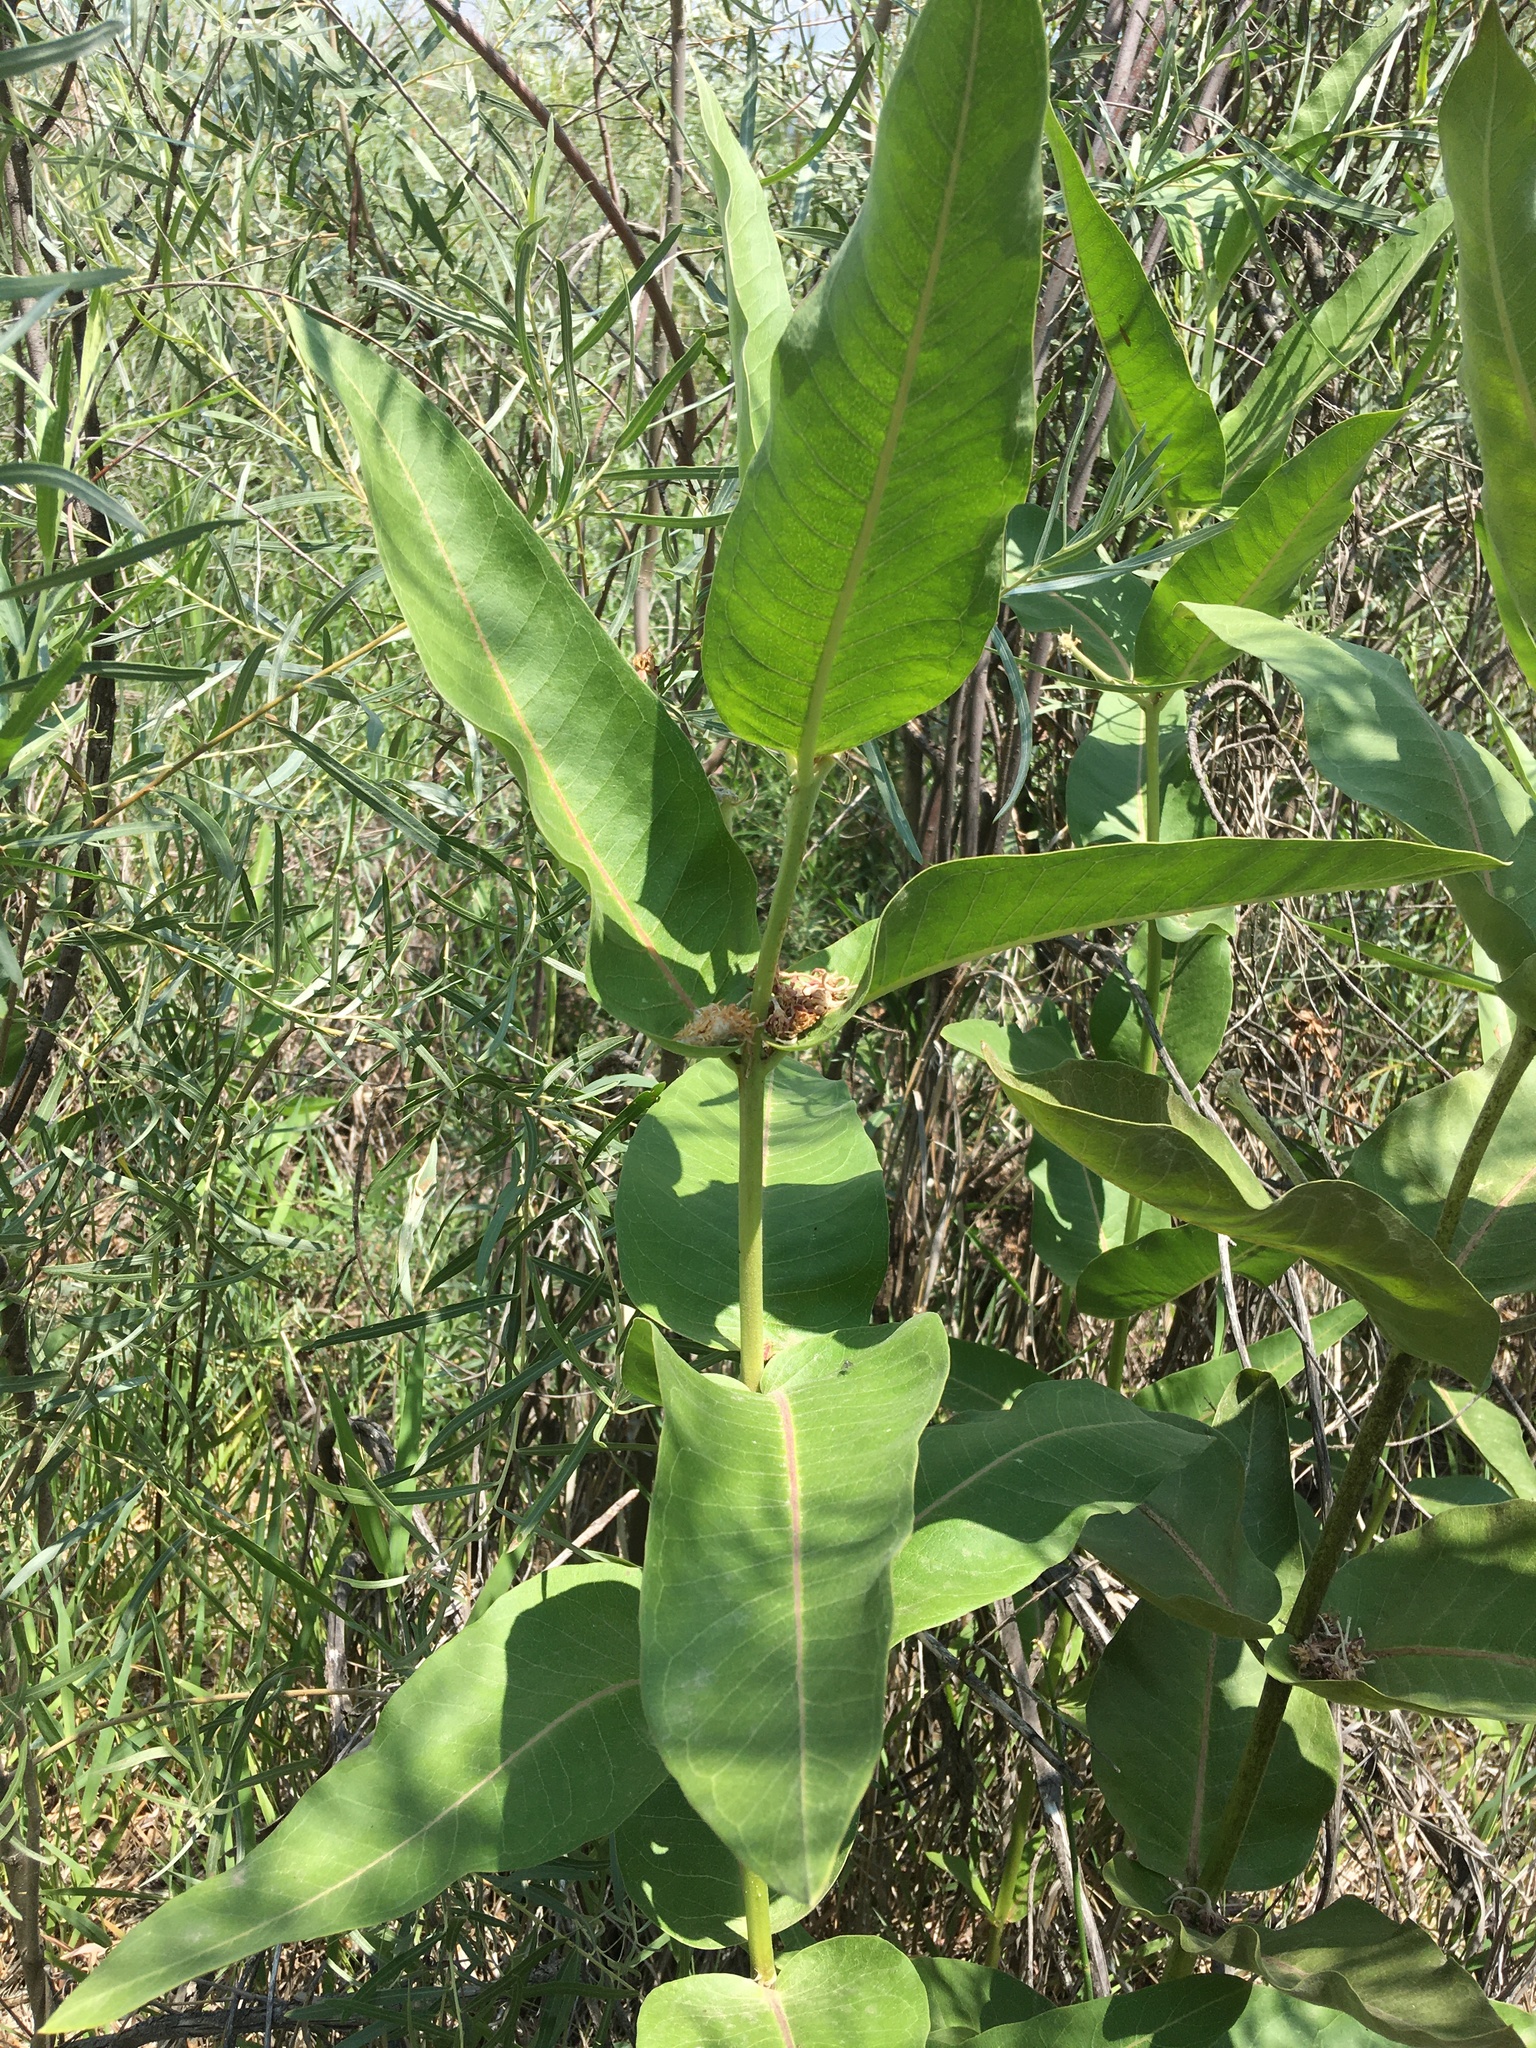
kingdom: Plantae
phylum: Tracheophyta
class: Magnoliopsida
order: Gentianales
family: Apocynaceae
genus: Asclepias
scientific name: Asclepias speciosa
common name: Showy milkweed
